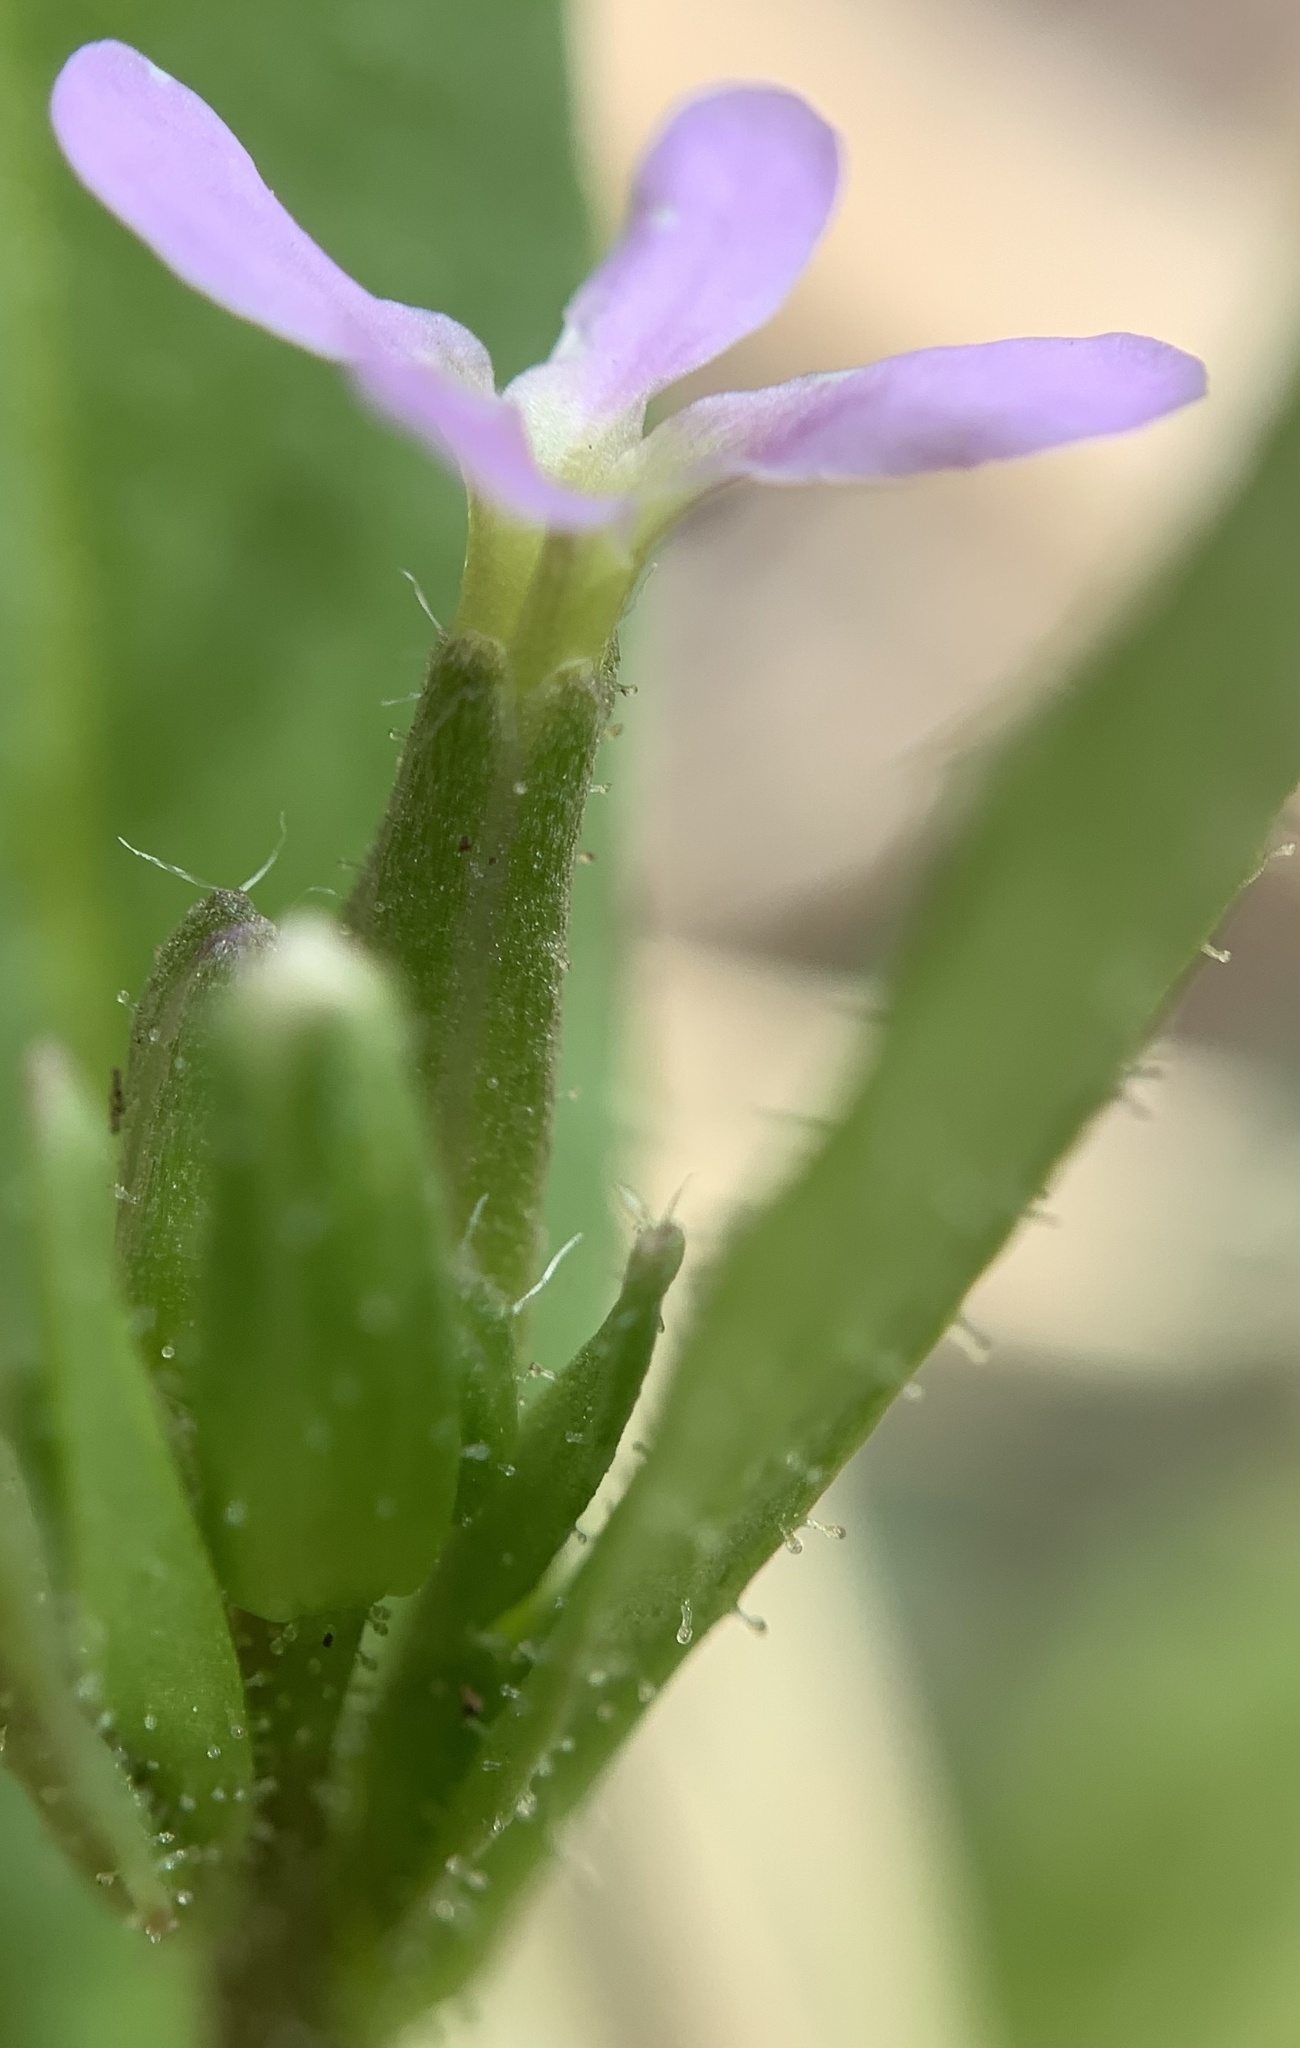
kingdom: Plantae
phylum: Tracheophyta
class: Magnoliopsida
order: Brassicales
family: Brassicaceae
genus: Chorispora
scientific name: Chorispora tenella
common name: Crossflower
